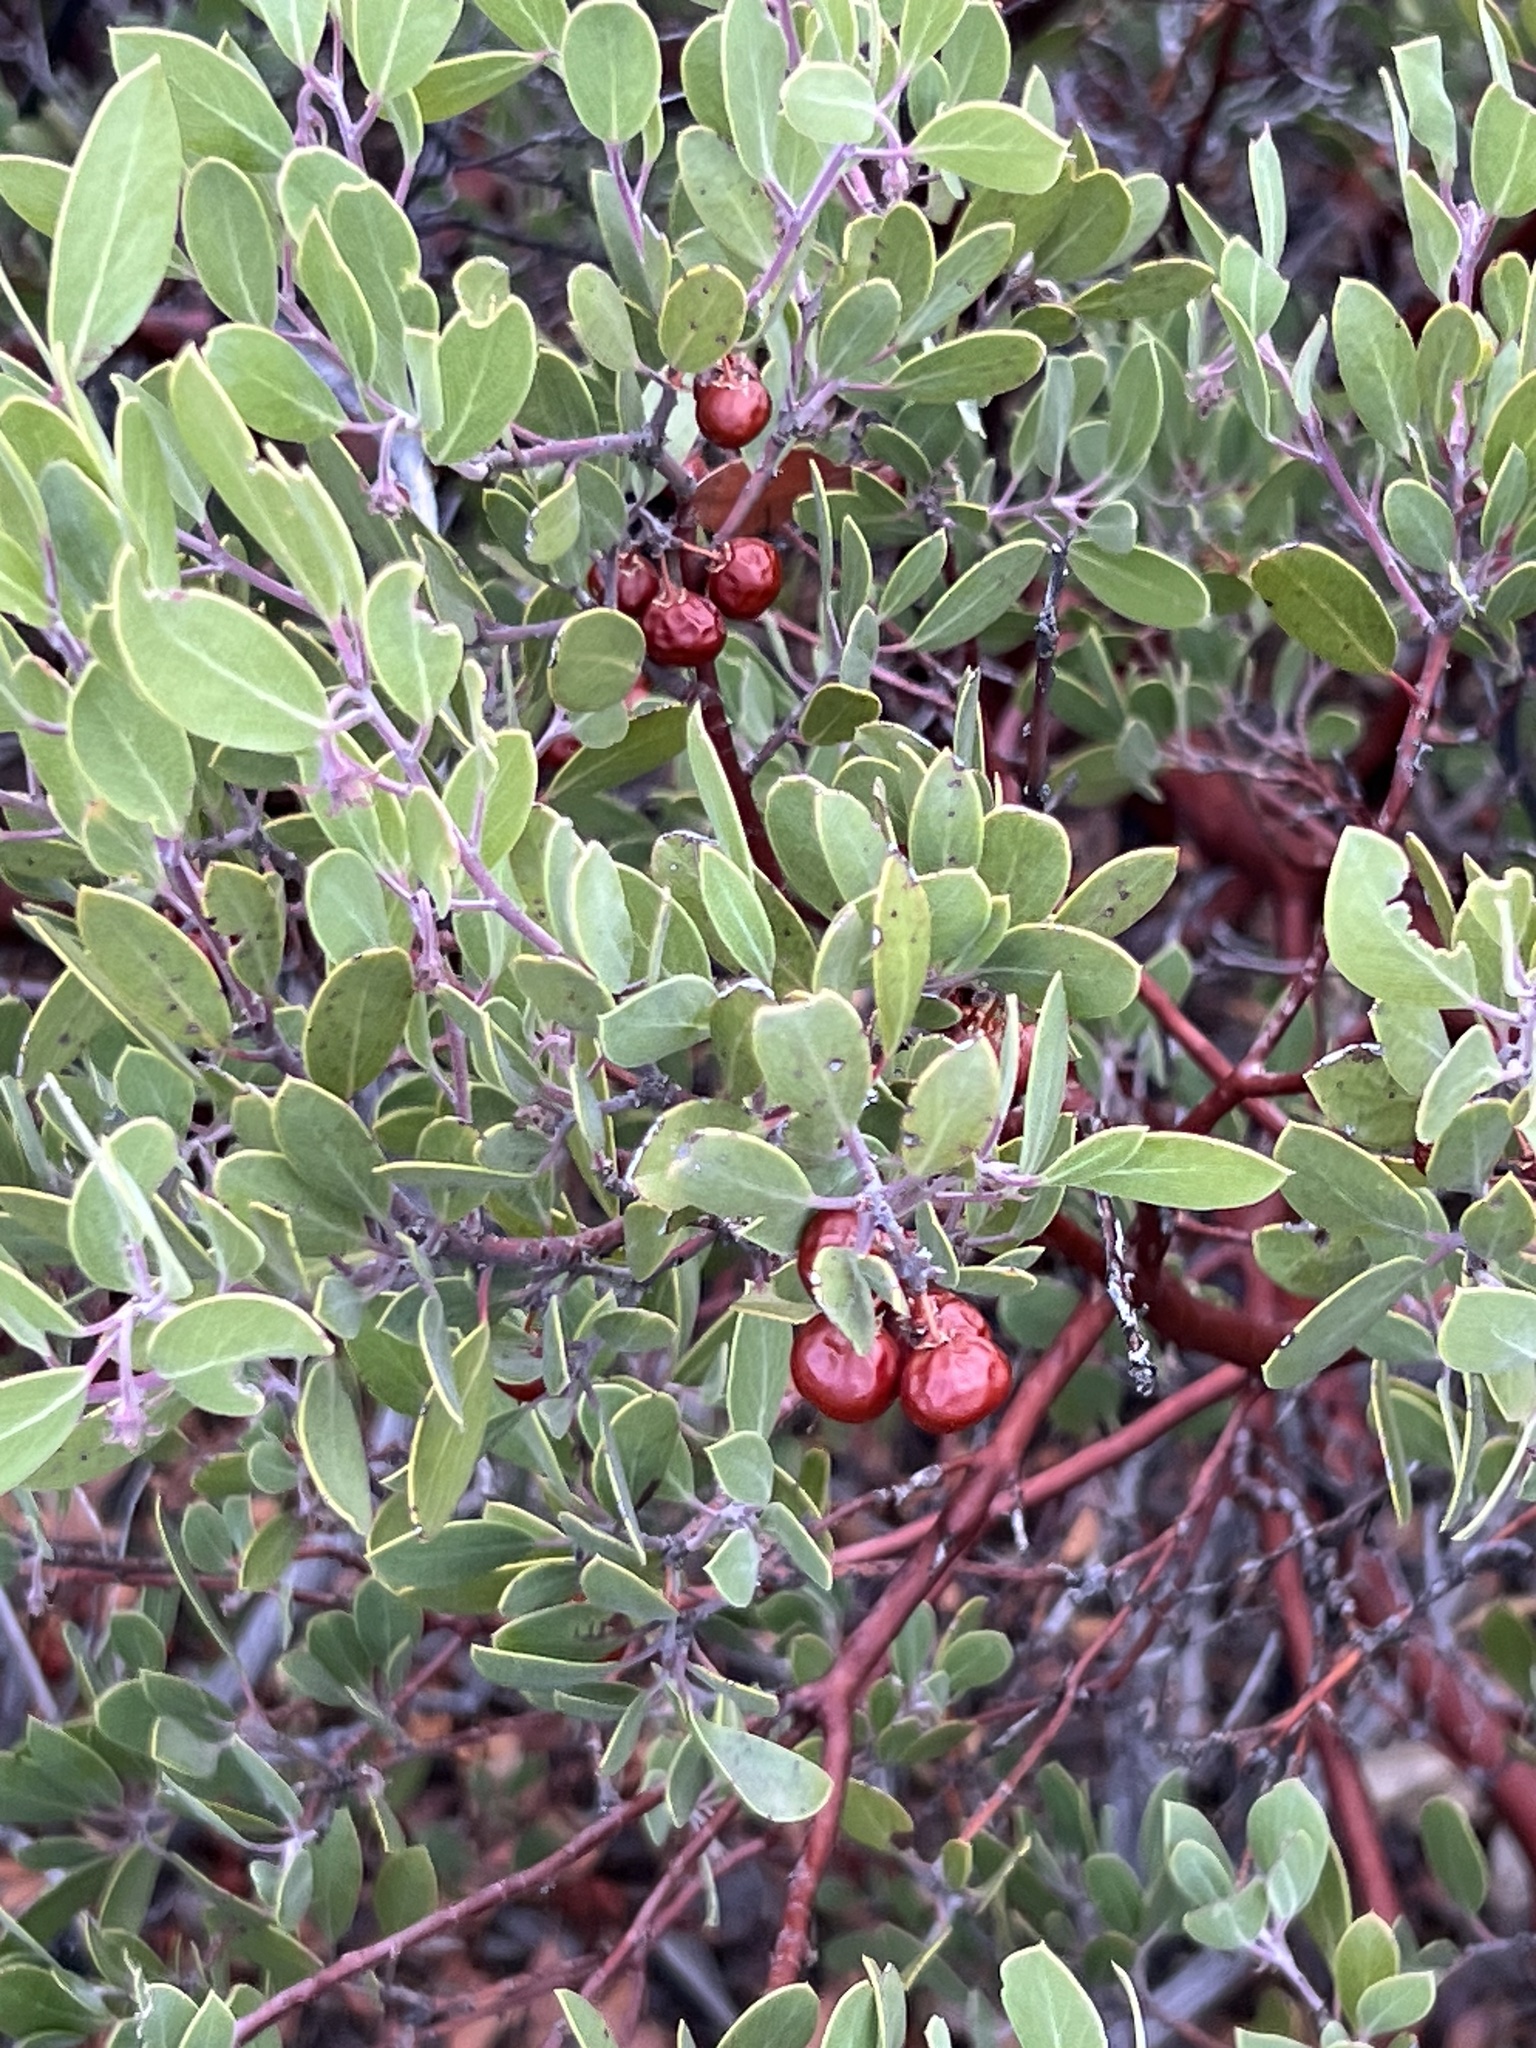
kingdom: Plantae
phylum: Tracheophyta
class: Magnoliopsida
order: Ericales
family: Ericaceae
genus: Arctostaphylos
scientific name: Arctostaphylos pungens
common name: Mexican manzanita
